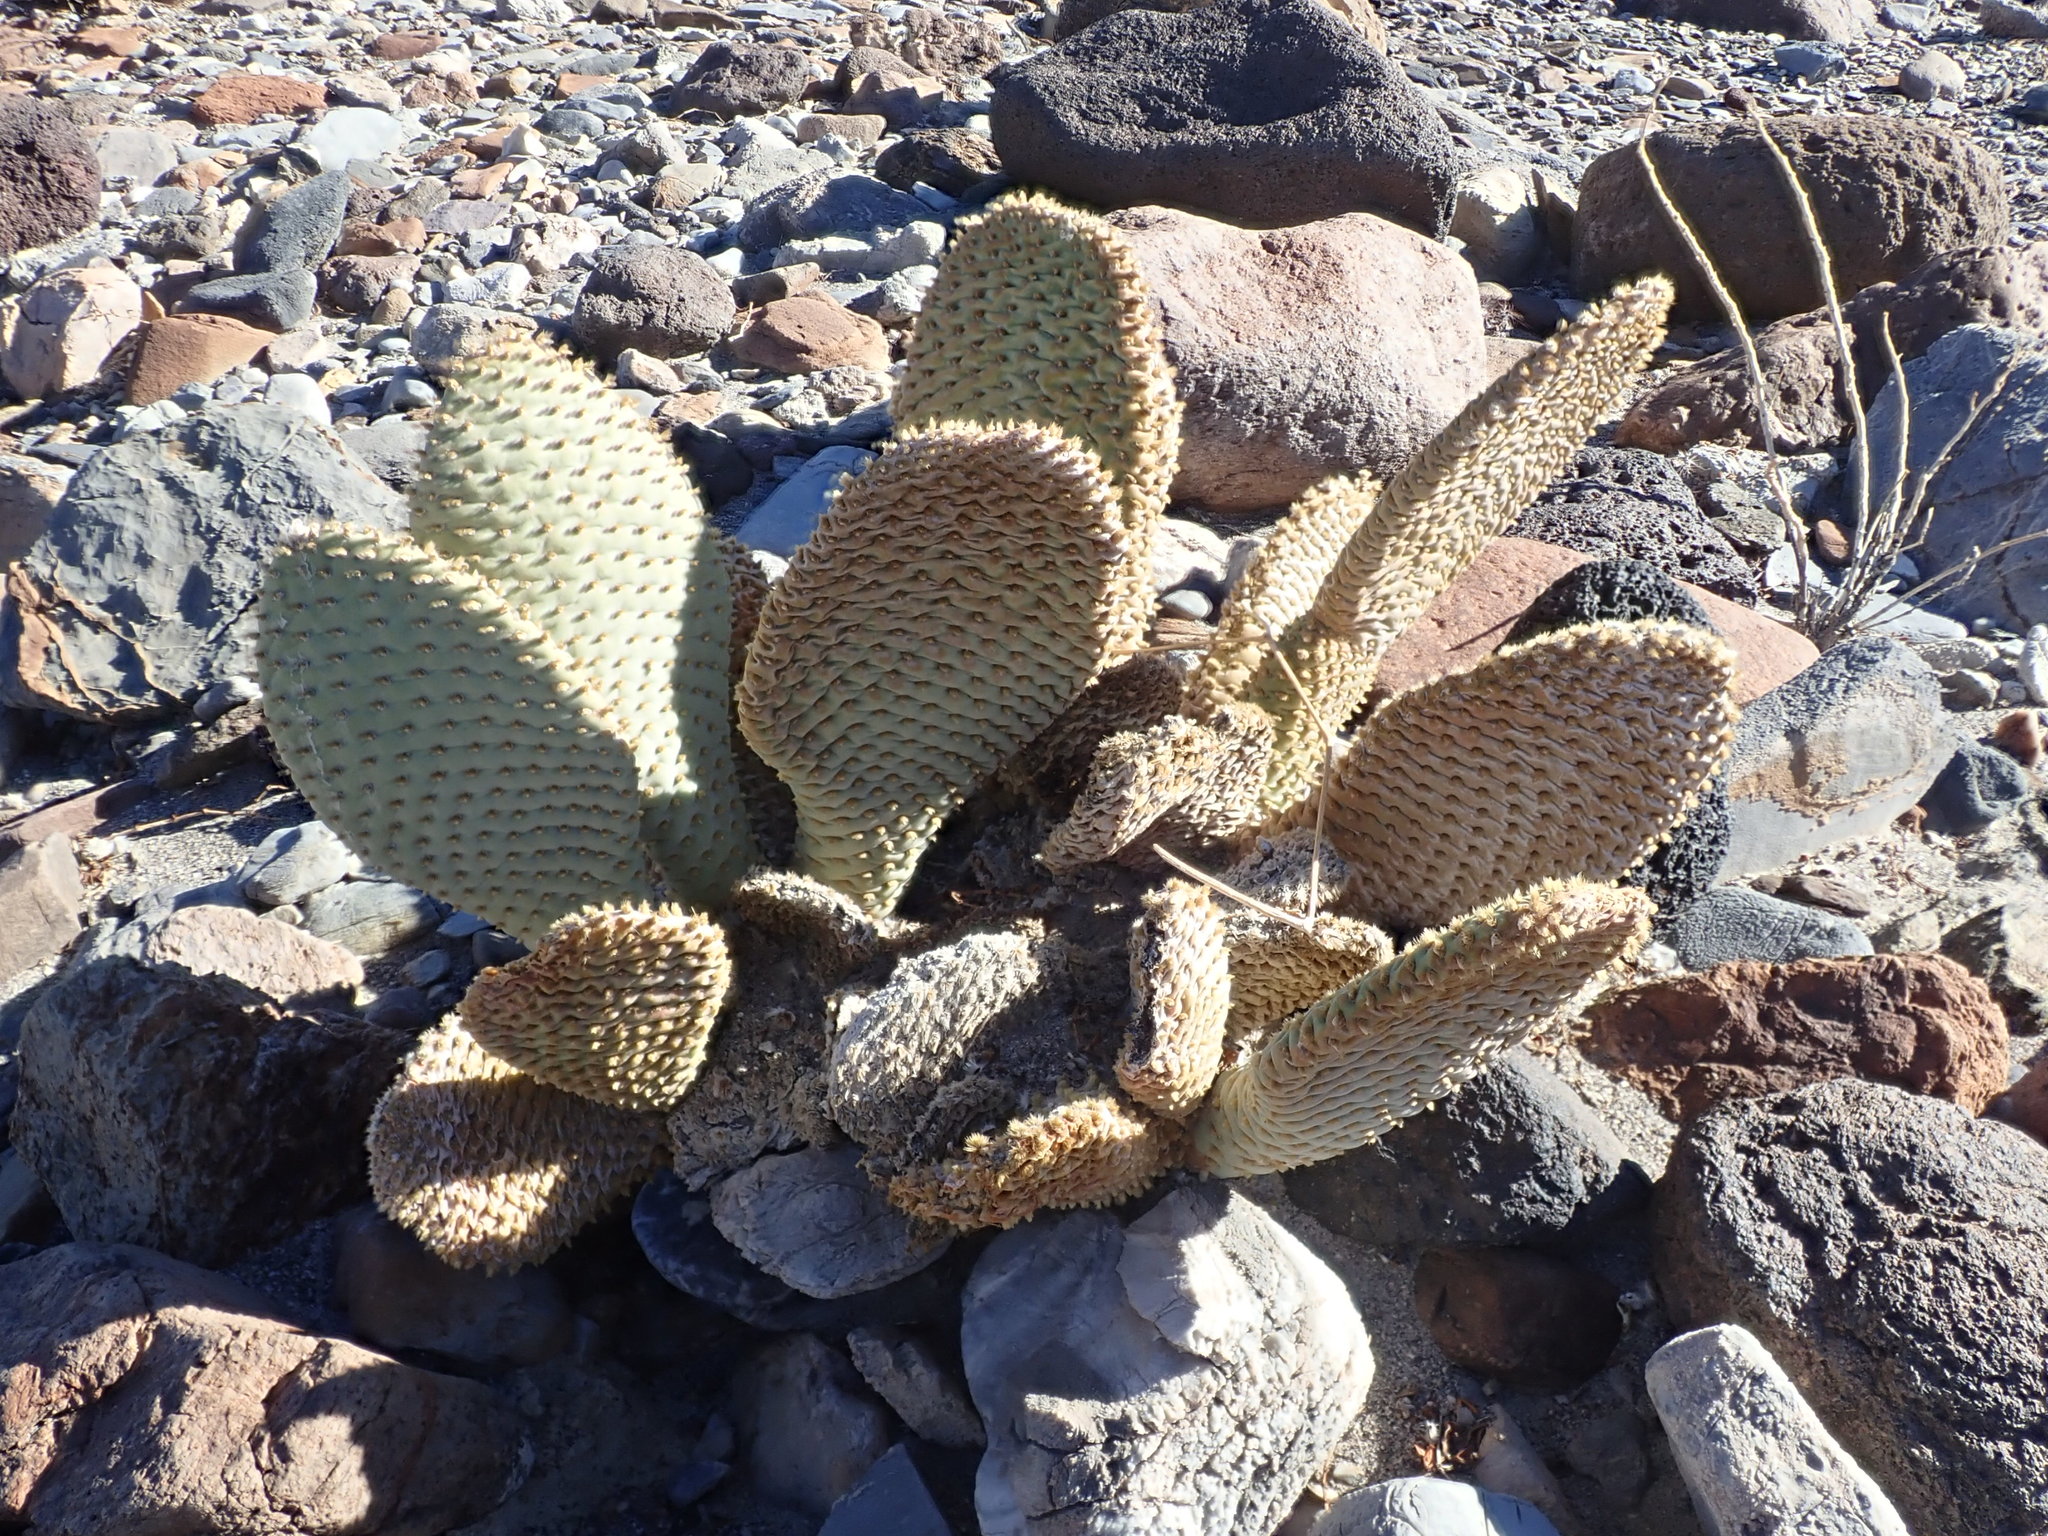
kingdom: Plantae
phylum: Tracheophyta
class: Magnoliopsida
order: Caryophyllales
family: Cactaceae
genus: Opuntia
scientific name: Opuntia basilaris
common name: Beavertail prickly-pear
